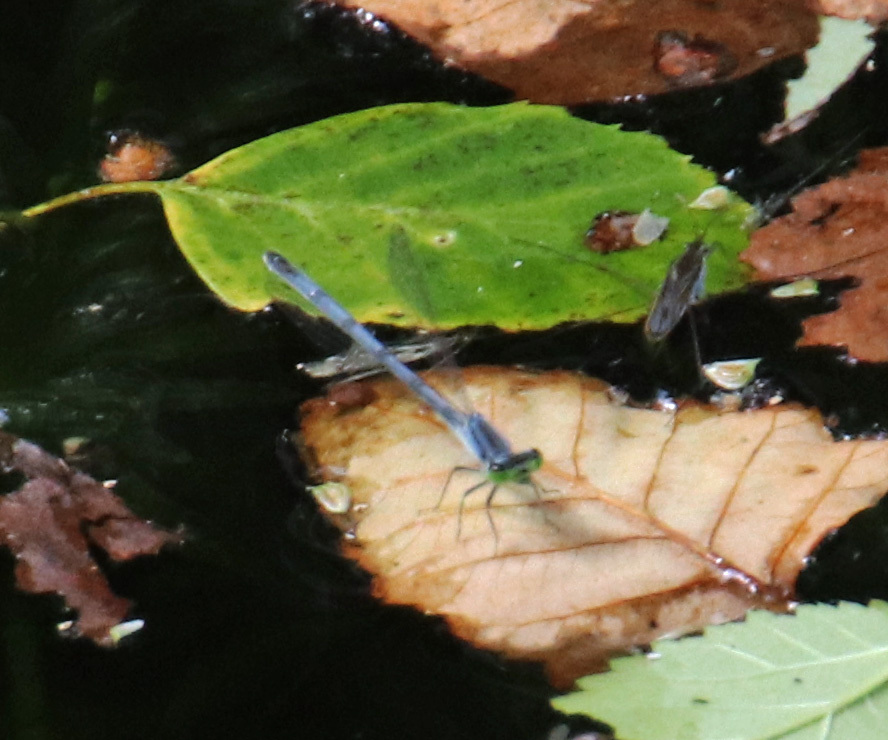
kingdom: Animalia
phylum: Arthropoda
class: Insecta
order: Odonata
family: Coenagrionidae
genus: Ischnura
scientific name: Ischnura verticalis
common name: Eastern forktail
